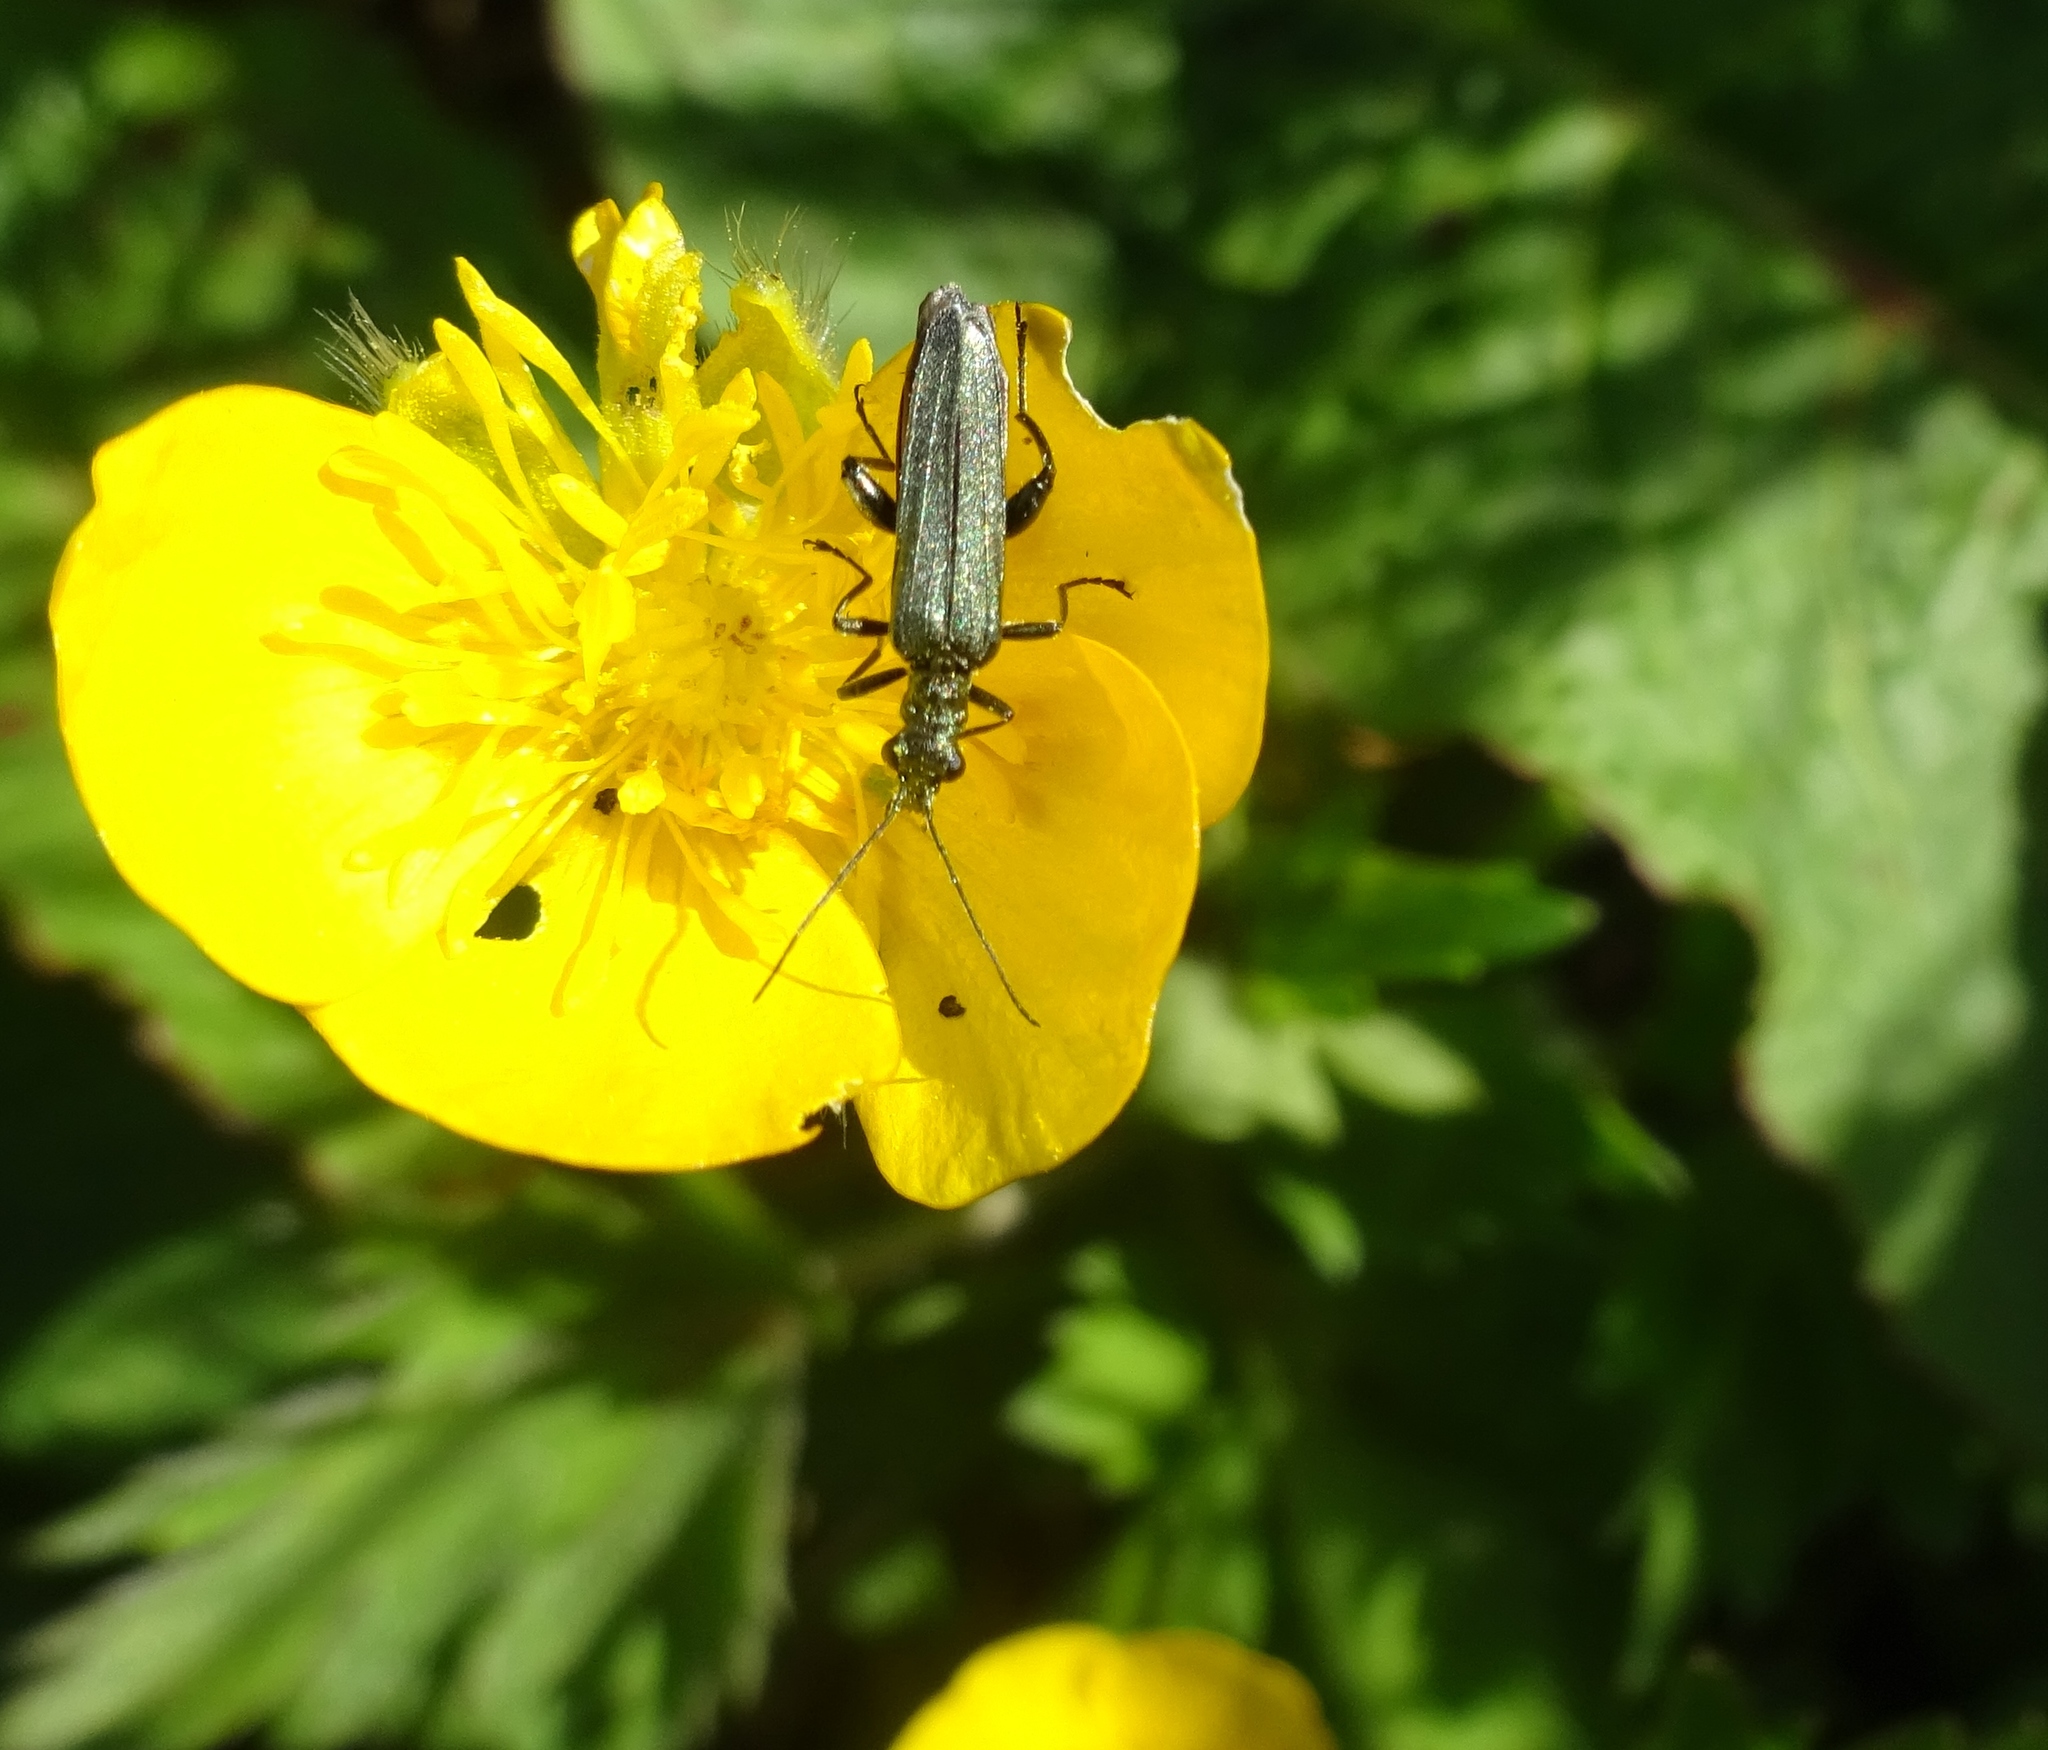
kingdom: Animalia
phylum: Arthropoda
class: Insecta
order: Coleoptera
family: Oedemeridae
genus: Oedemera
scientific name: Oedemera virescens
